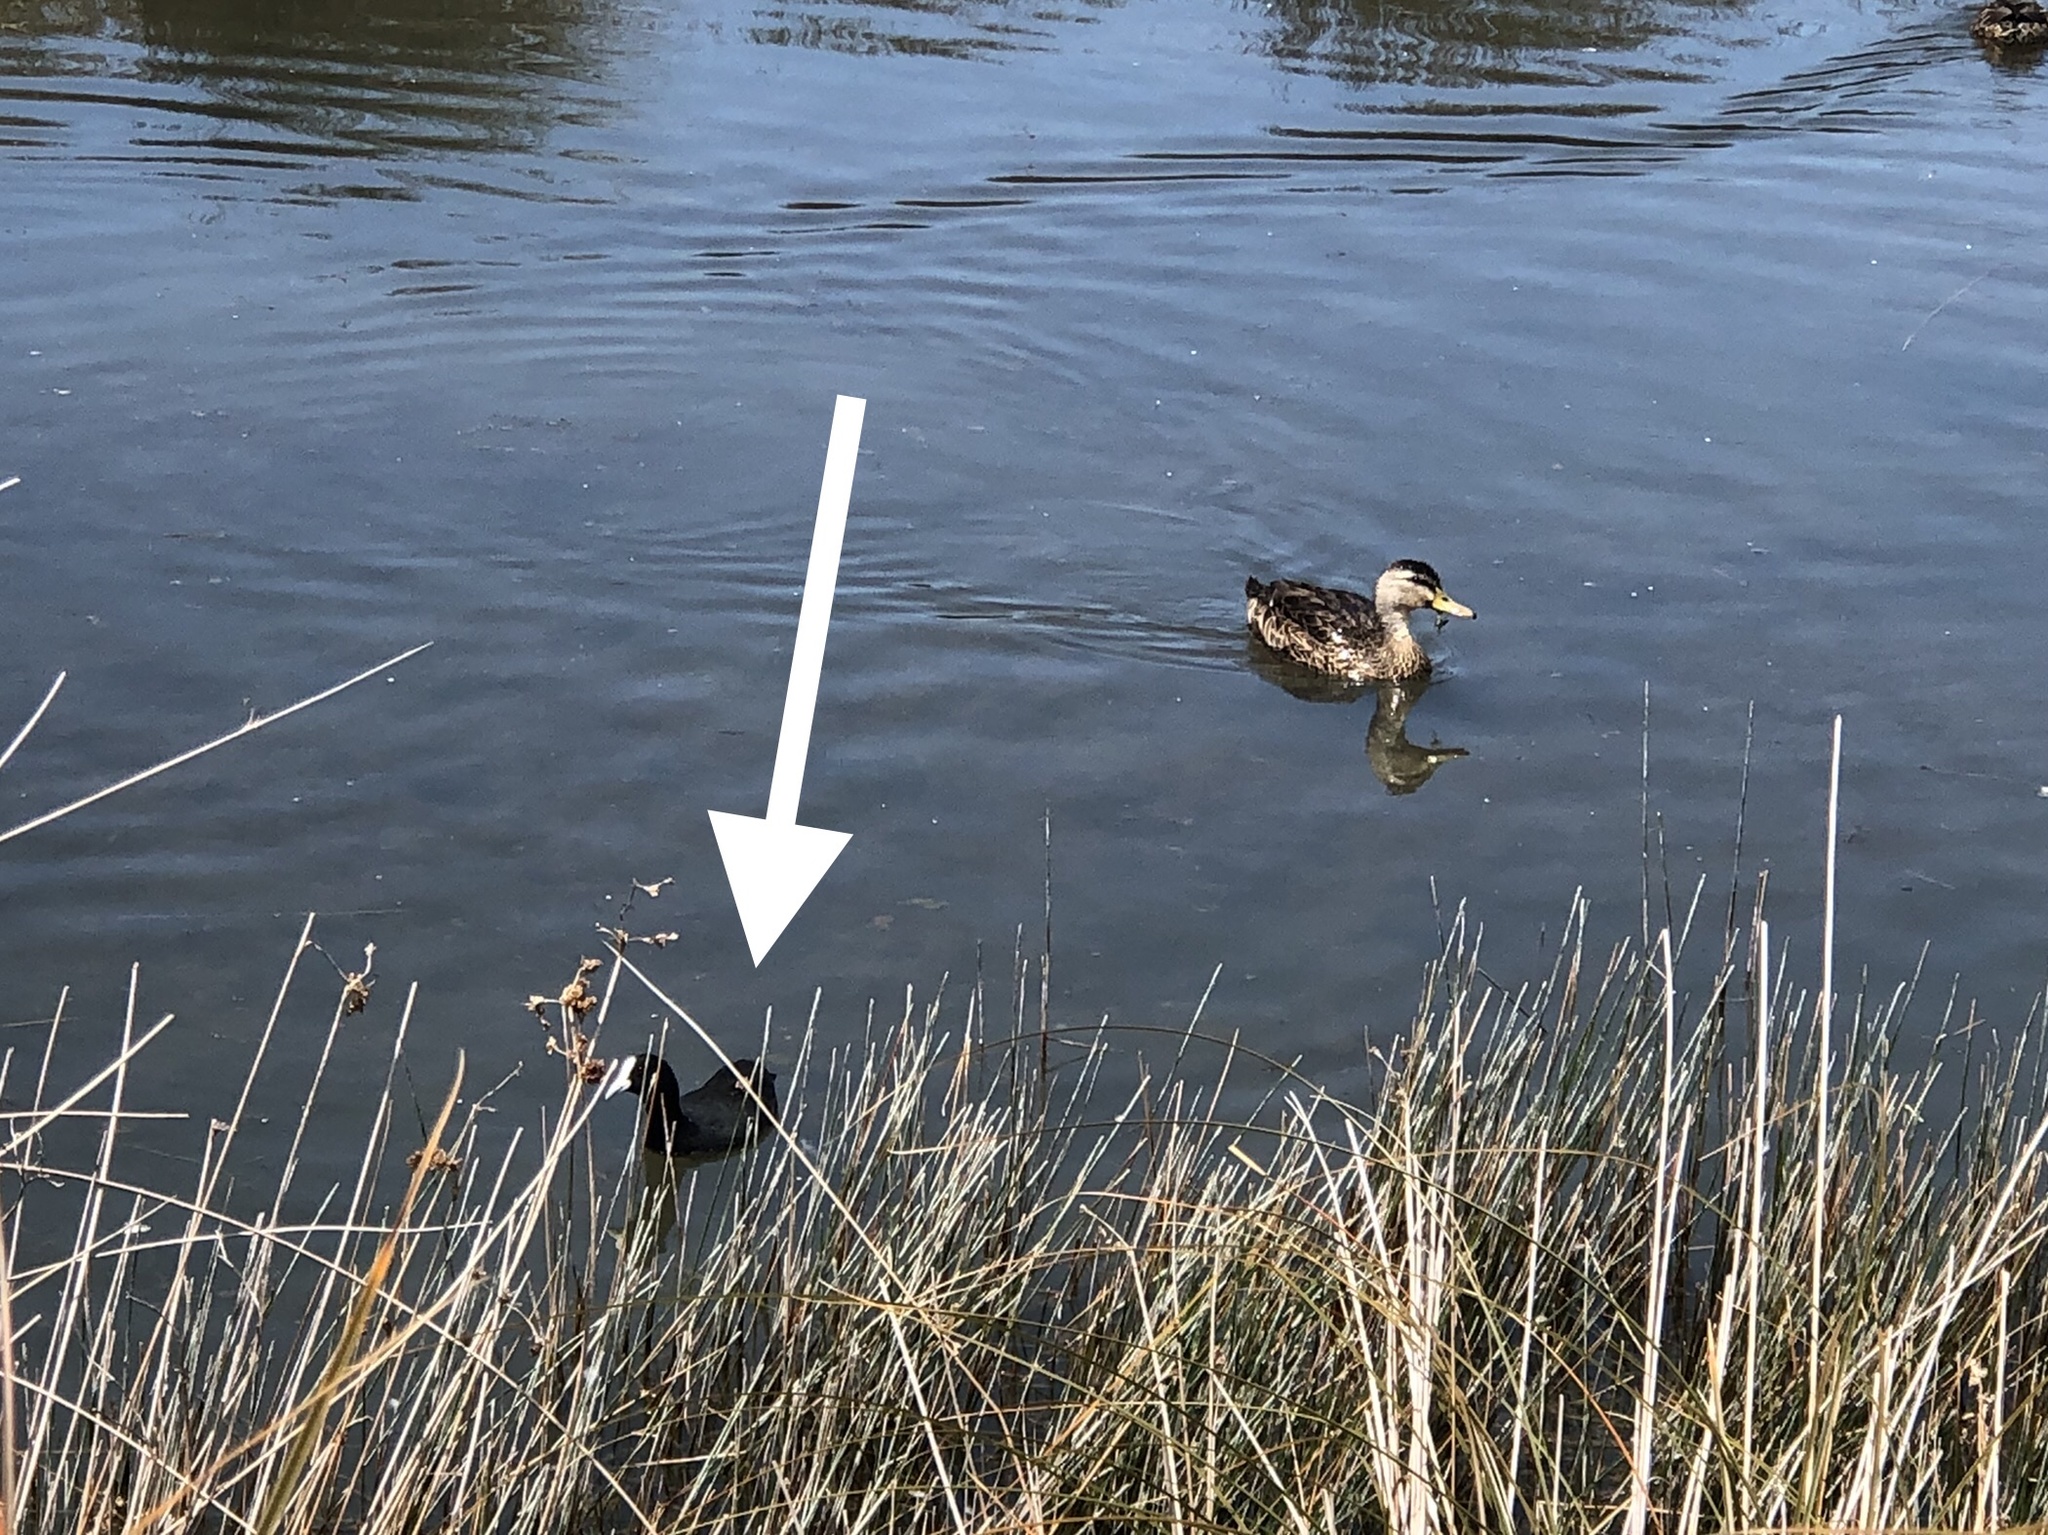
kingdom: Animalia
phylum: Chordata
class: Aves
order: Gruiformes
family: Rallidae
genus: Fulica
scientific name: Fulica atra
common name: Eurasian coot
